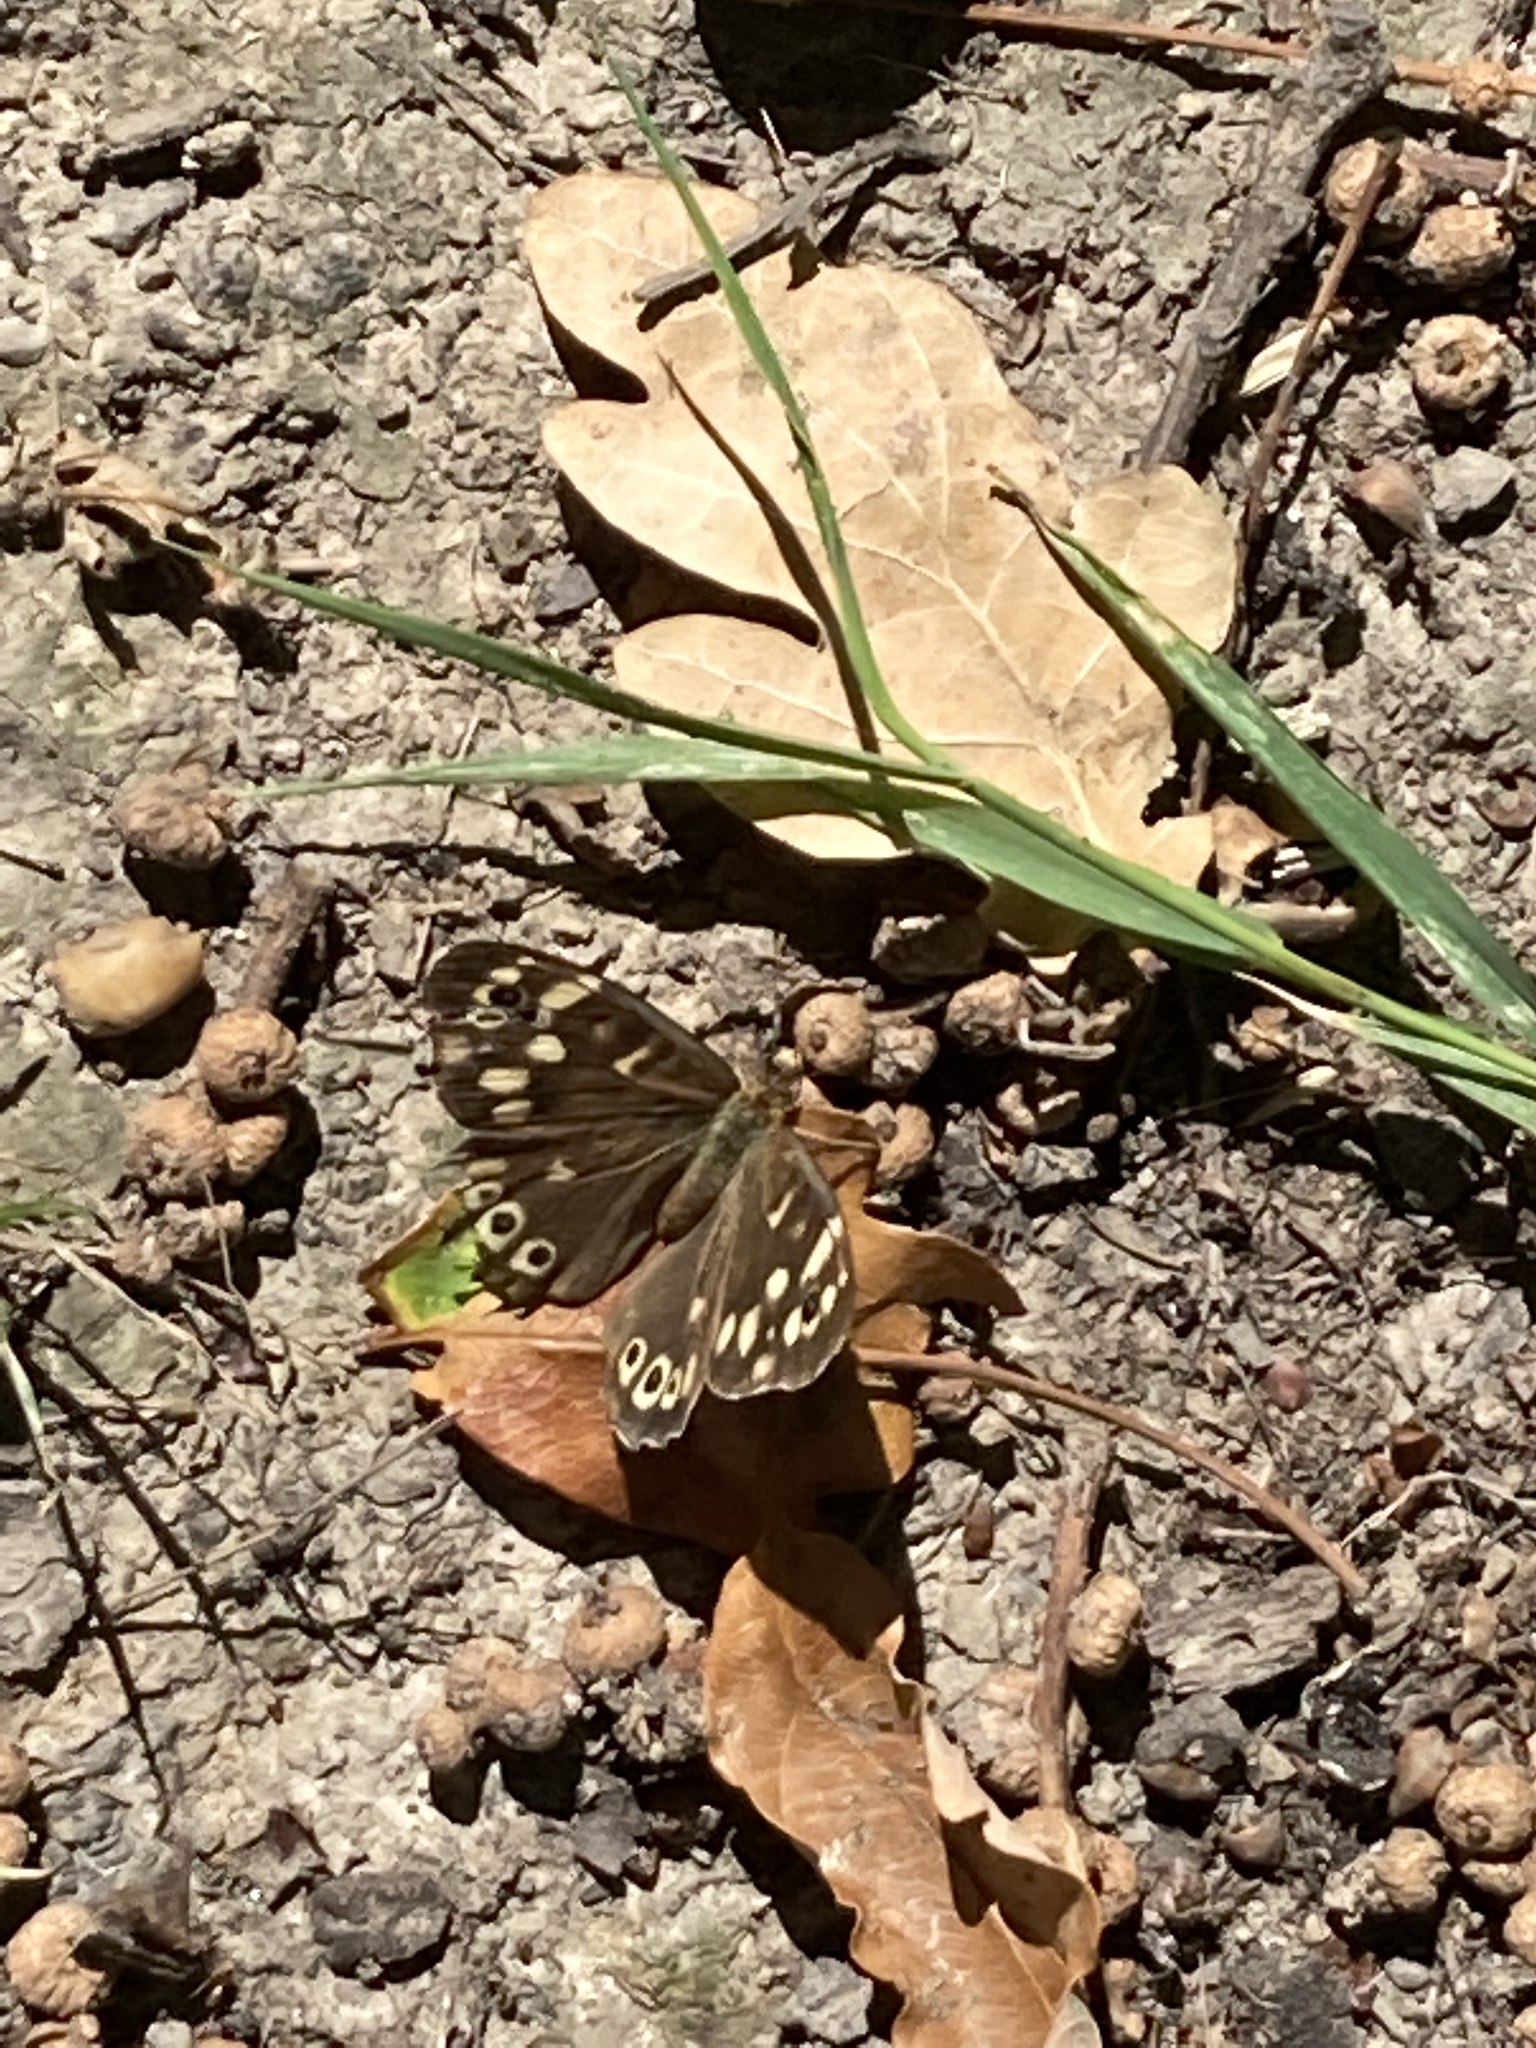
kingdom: Animalia
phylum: Arthropoda
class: Insecta
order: Lepidoptera
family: Nymphalidae
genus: Pararge
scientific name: Pararge aegeria
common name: Speckled wood
